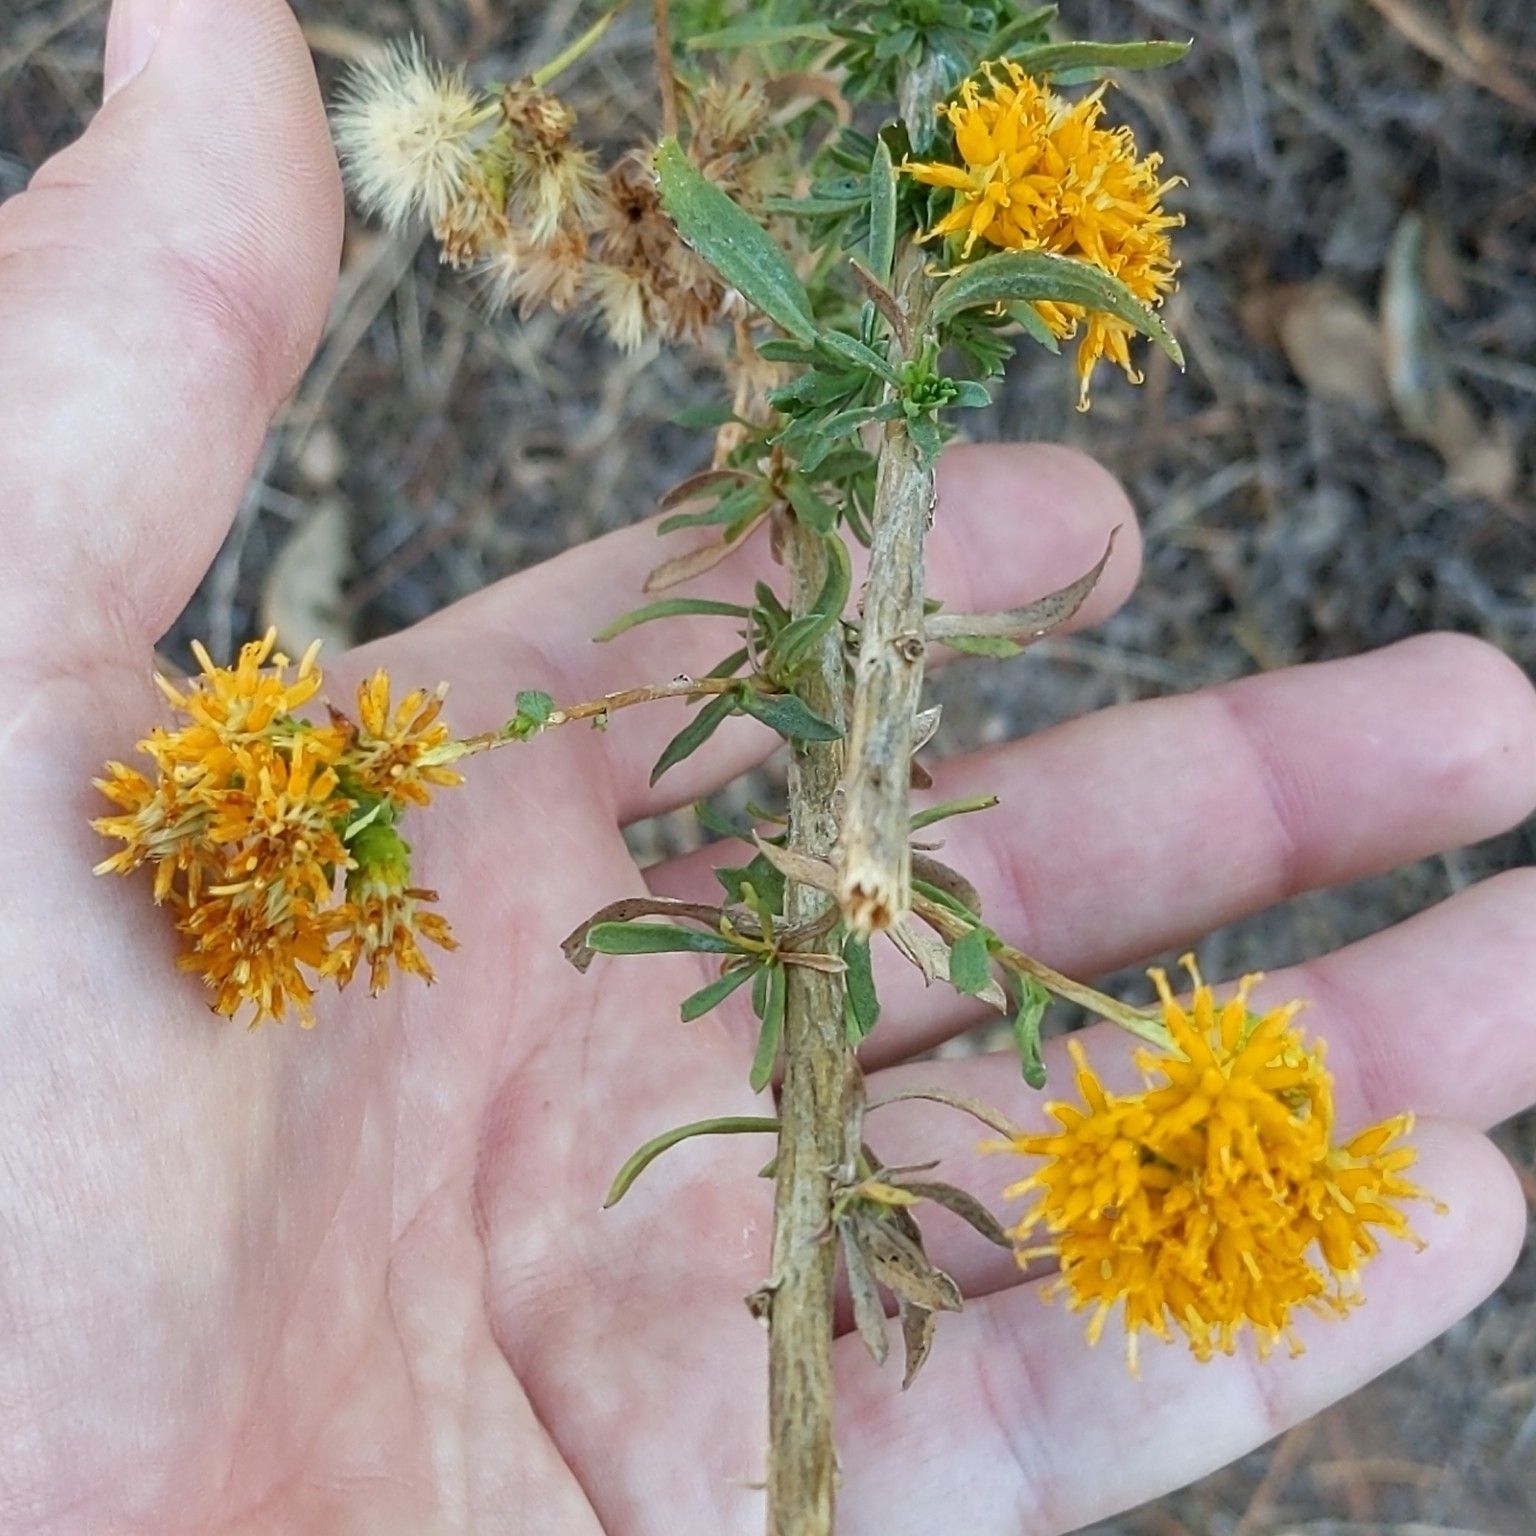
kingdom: Plantae
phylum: Tracheophyta
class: Magnoliopsida
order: Asterales
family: Asteraceae
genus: Isocoma
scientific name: Isocoma menziesii
